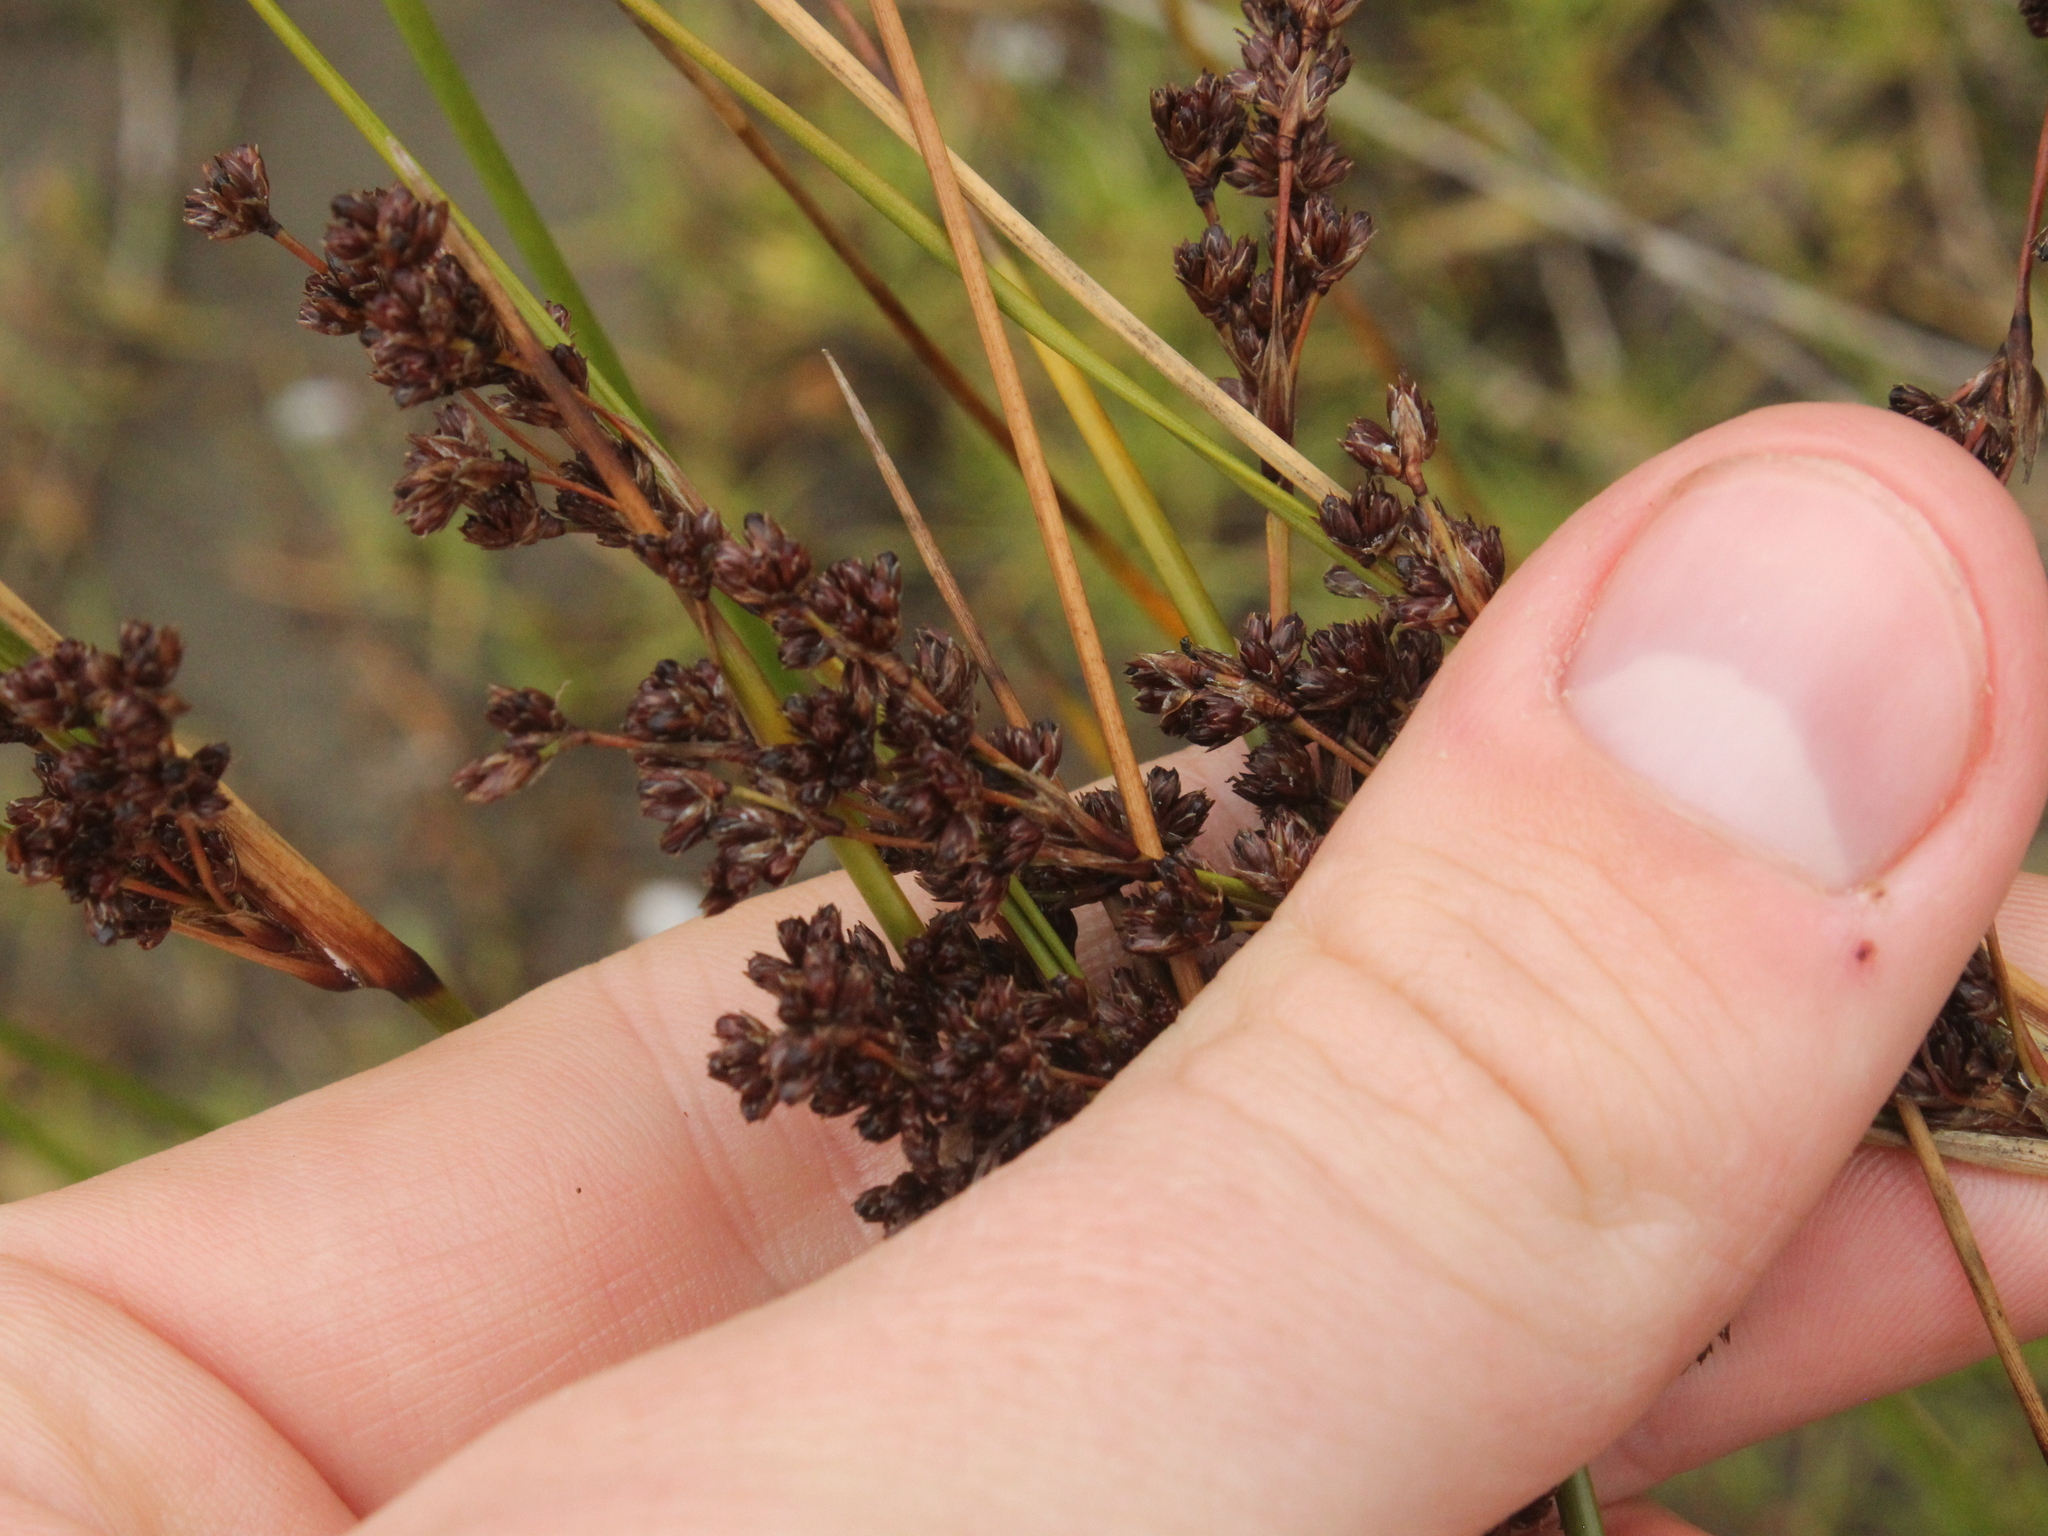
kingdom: Plantae
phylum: Tracheophyta
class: Liliopsida
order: Poales
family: Juncaceae
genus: Juncus
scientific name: Juncus kraussii
